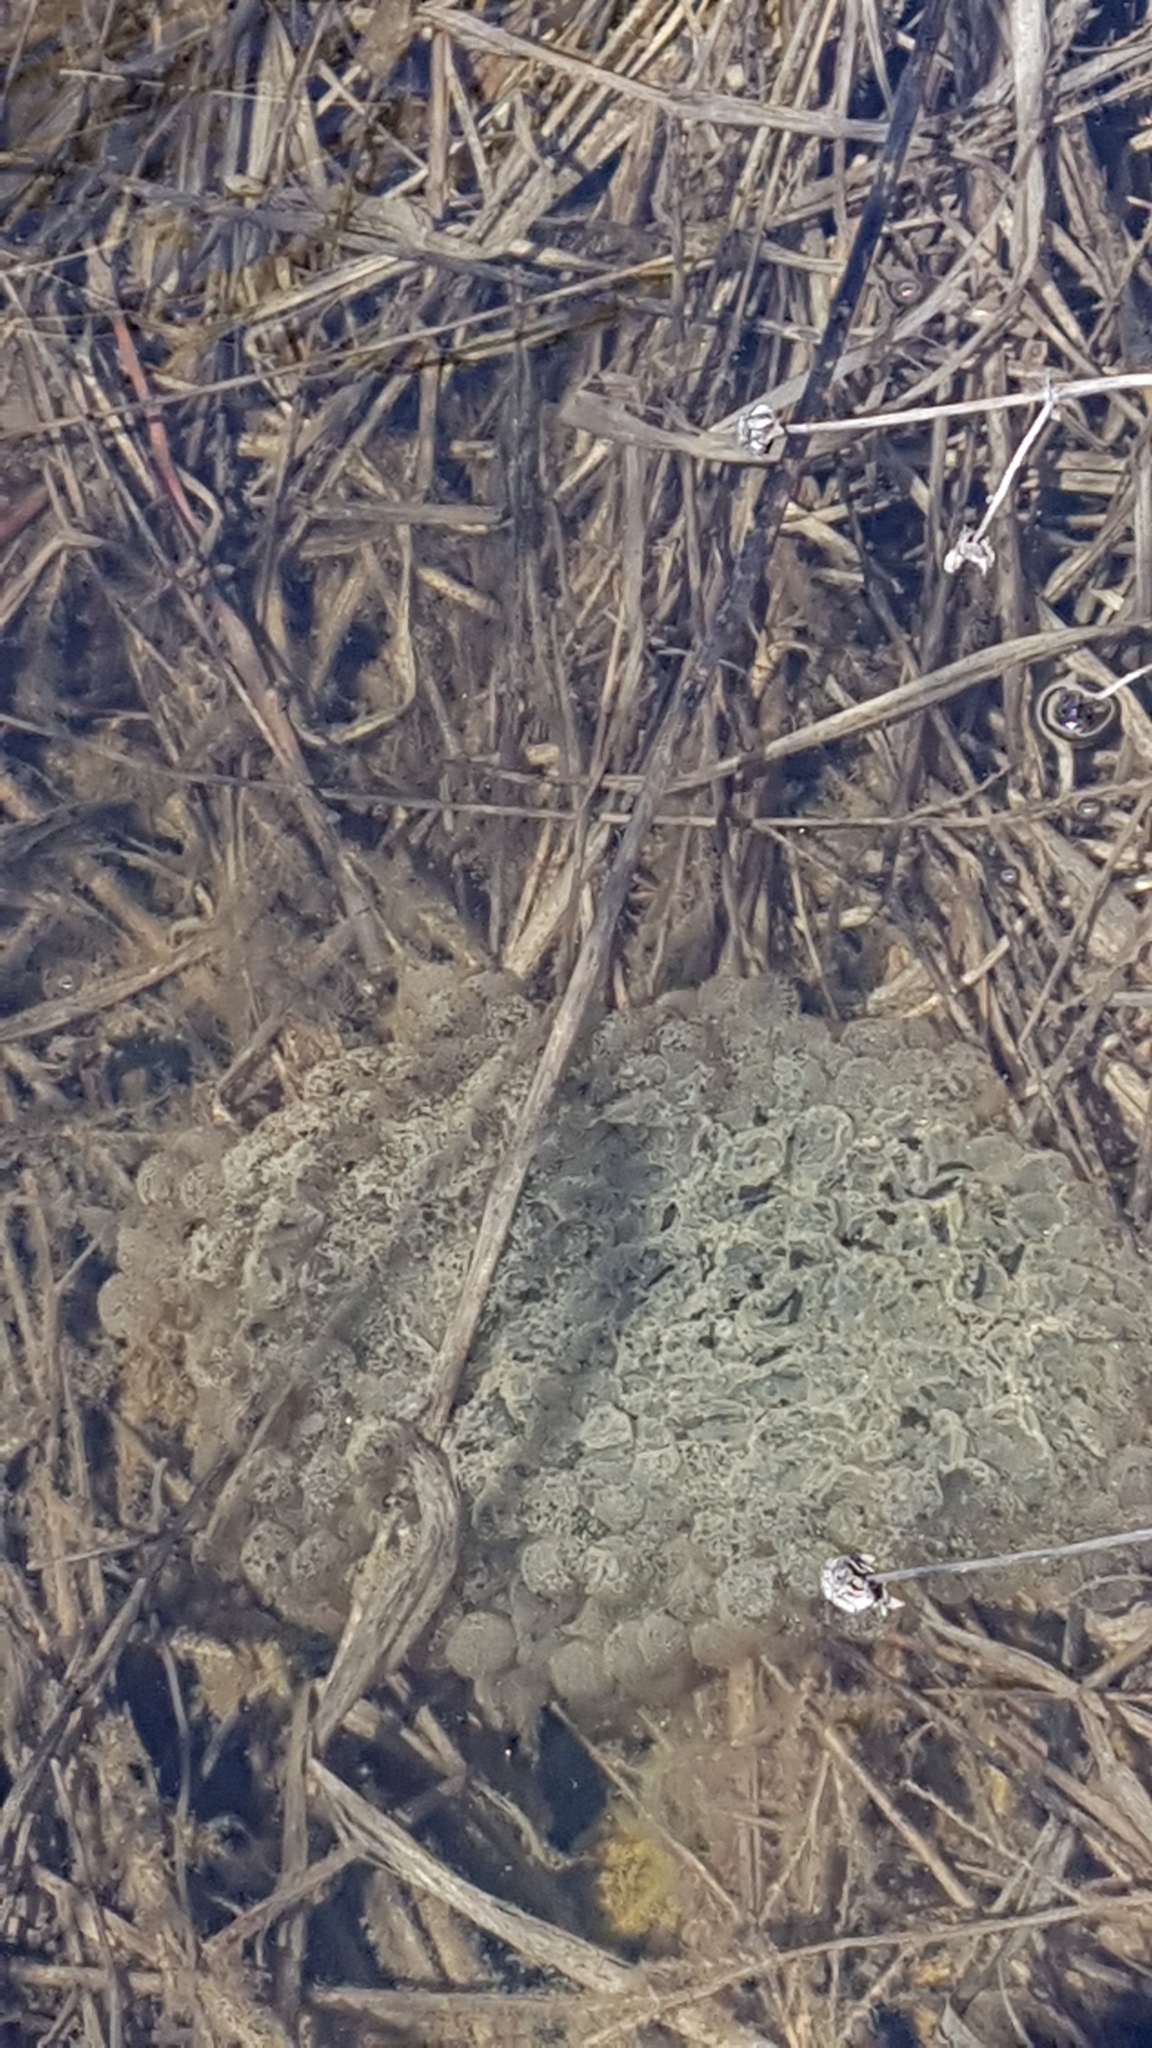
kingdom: Animalia
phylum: Chordata
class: Amphibia
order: Anura
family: Ranidae
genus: Rana
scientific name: Rana temporaria
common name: Common frog
